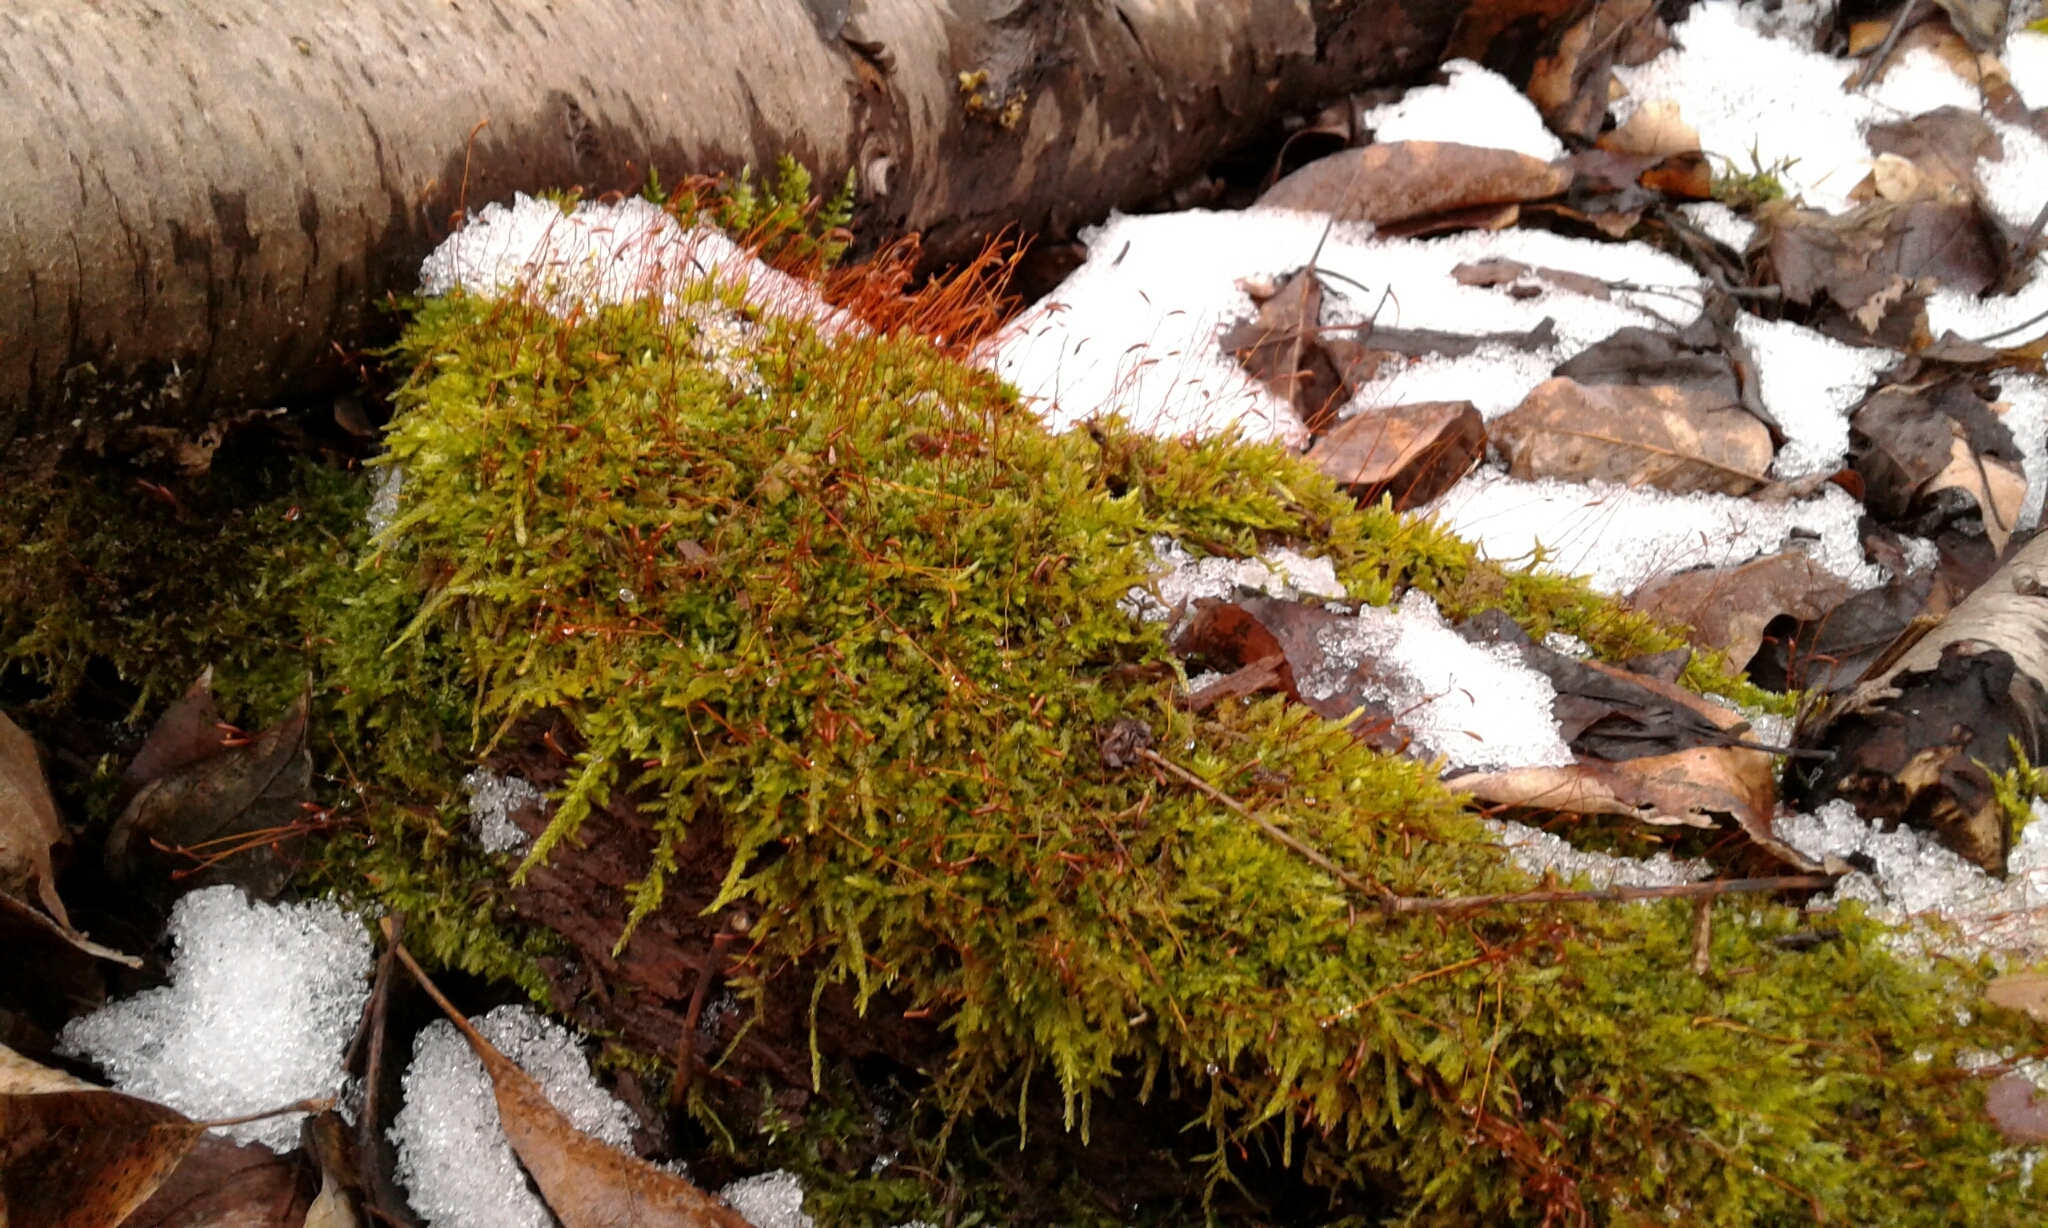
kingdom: Plantae
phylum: Bryophyta
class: Bryopsida
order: Hypnales
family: Callicladiaceae
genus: Callicladium
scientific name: Callicladium haldanianum
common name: Beautiful branch moss
